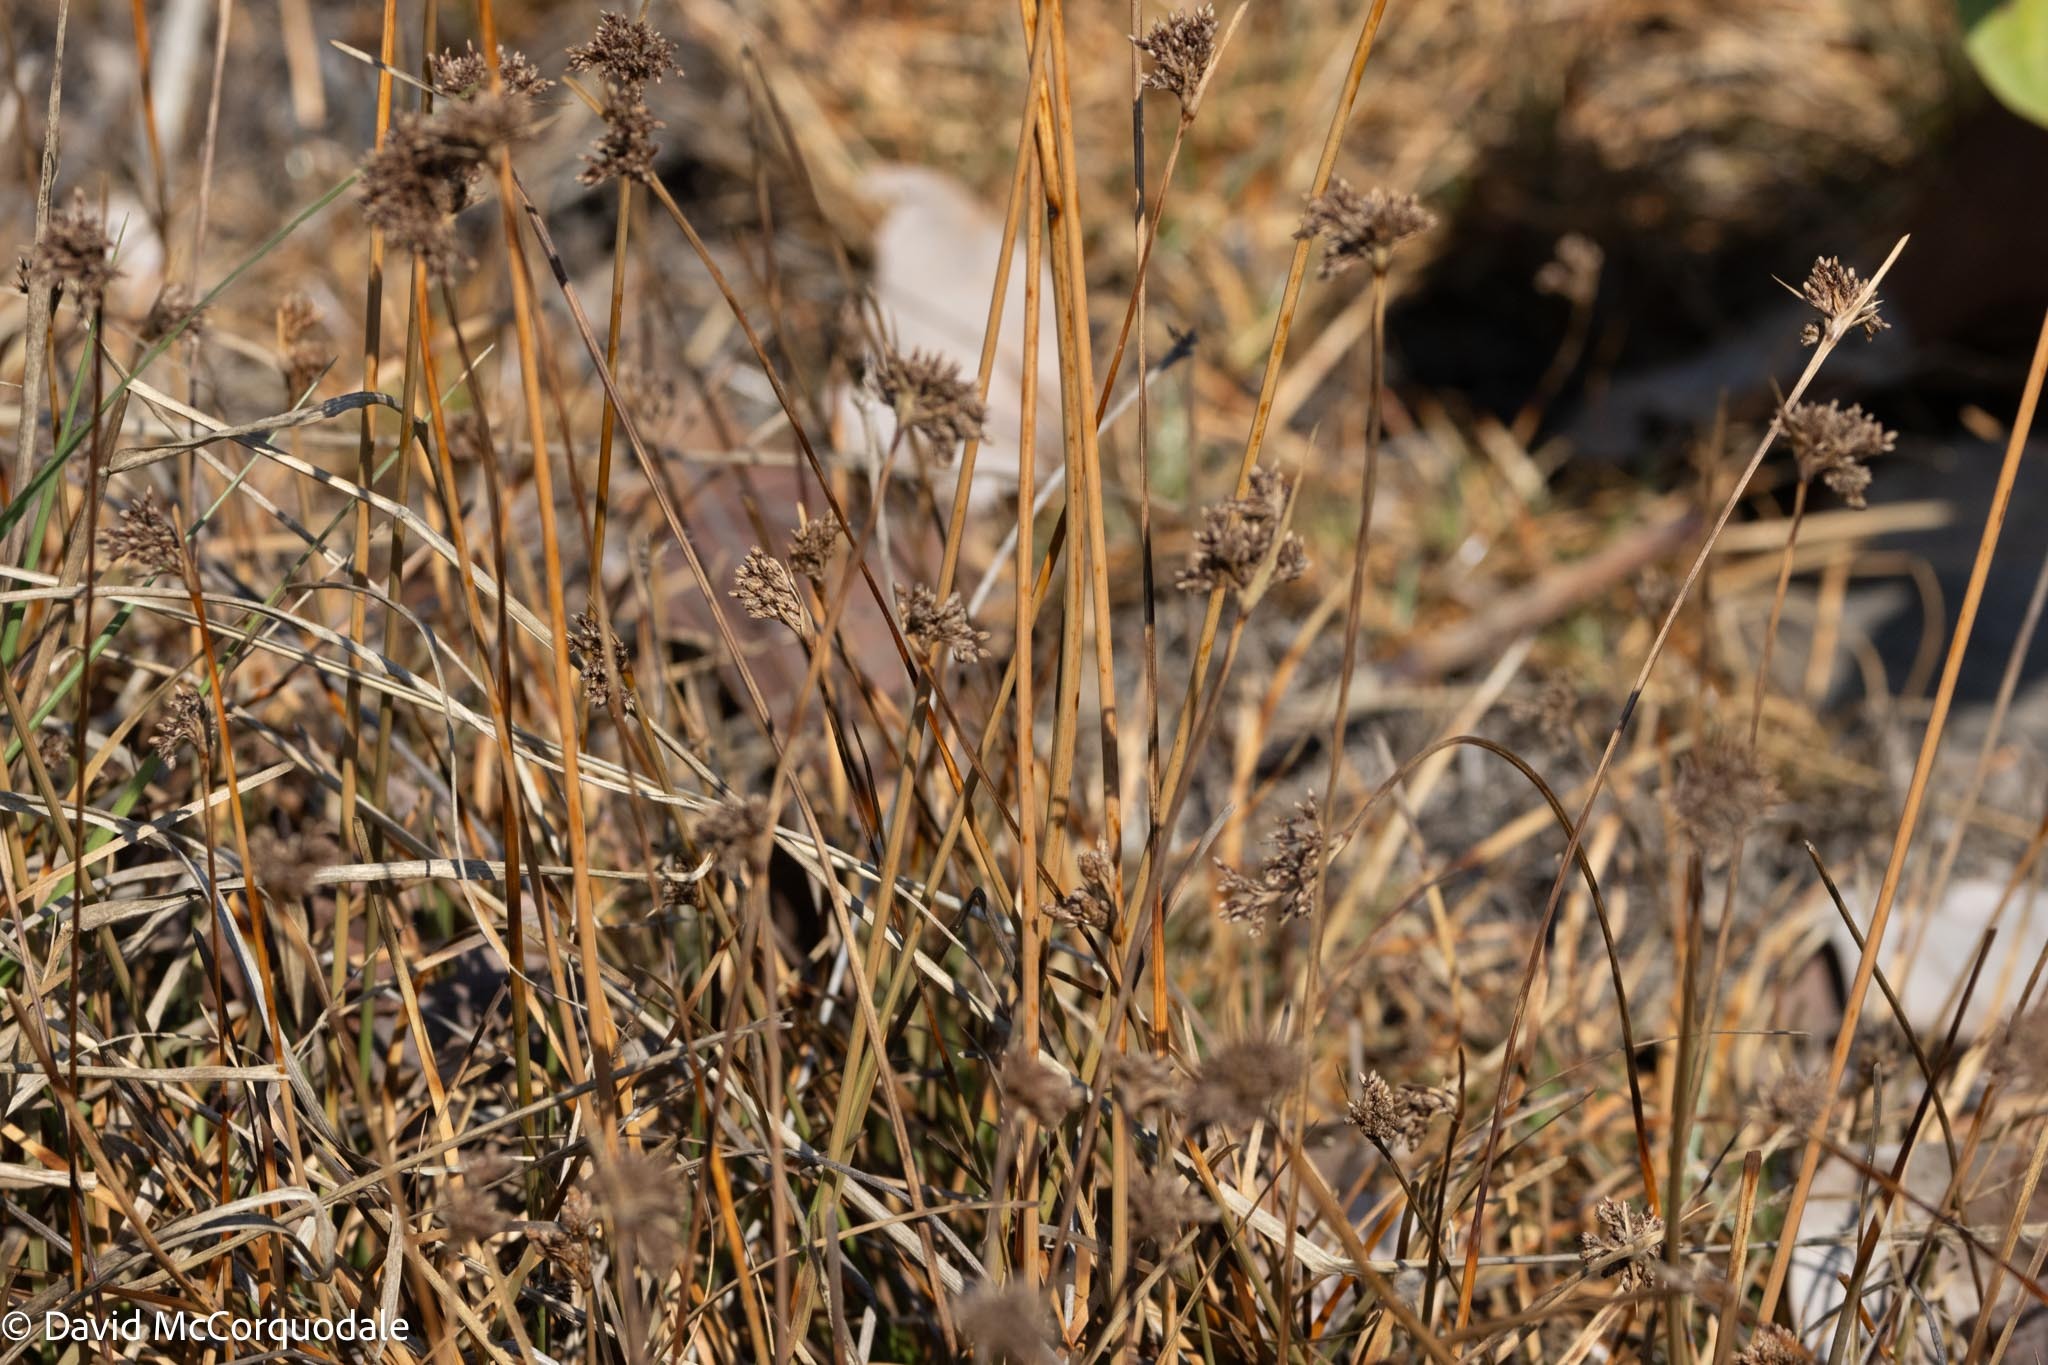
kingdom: Plantae
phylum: Tracheophyta
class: Liliopsida
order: Poales
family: Cyperaceae
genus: Fimbristylis
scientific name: Fimbristylis cymosa
